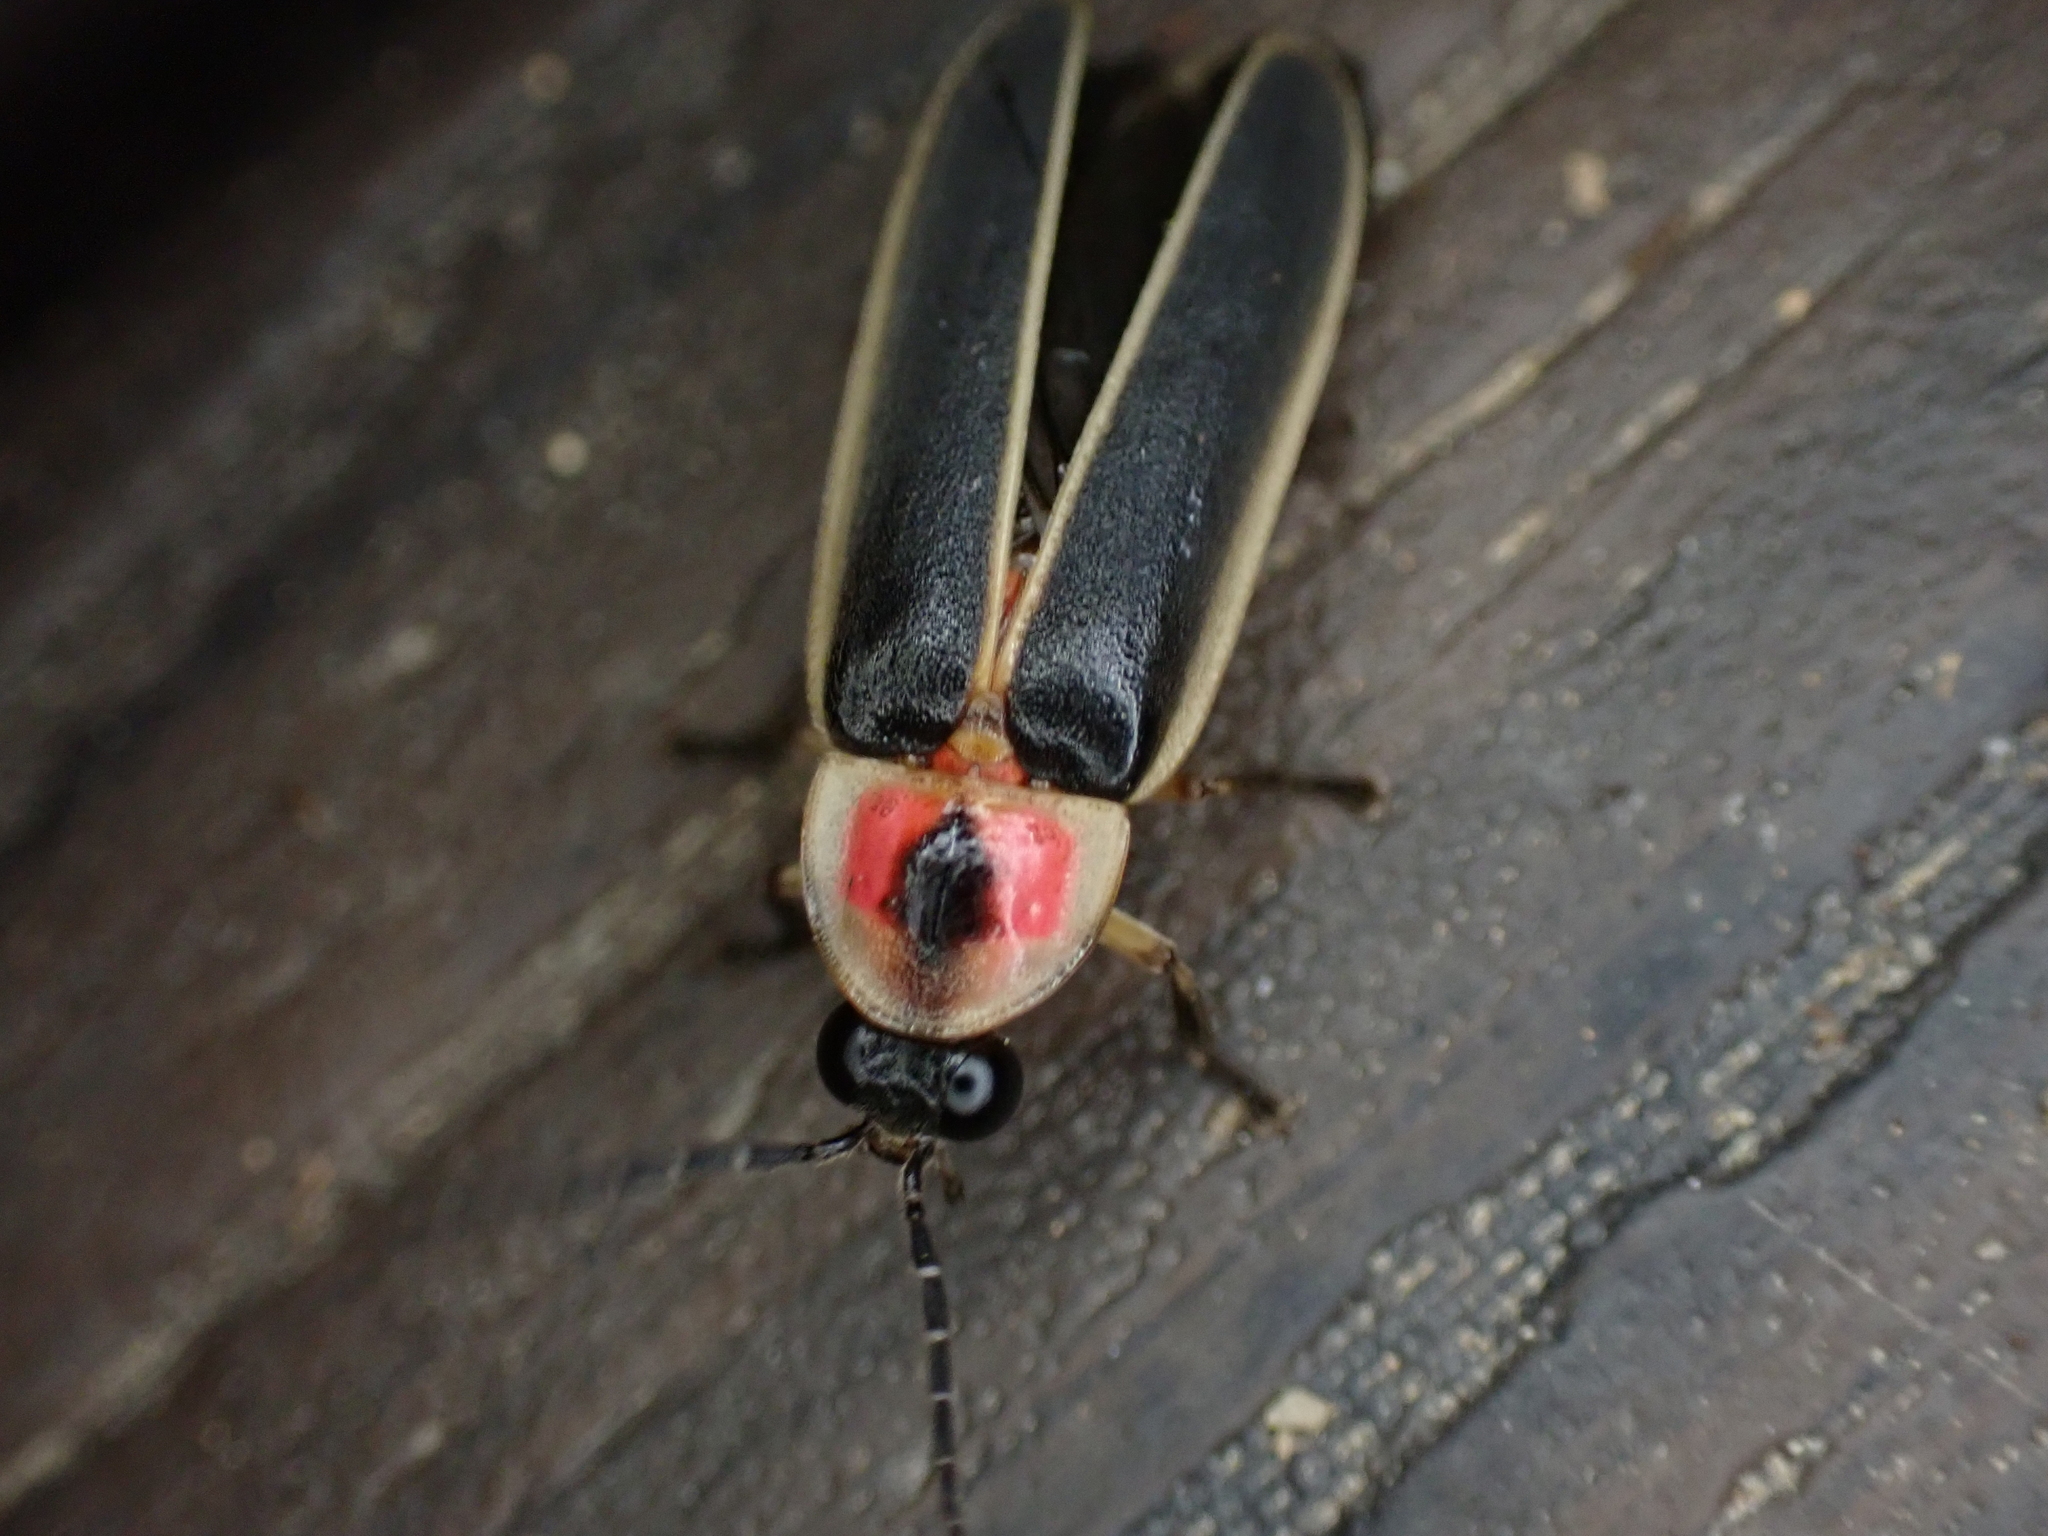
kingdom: Animalia
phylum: Arthropoda
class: Insecta
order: Coleoptera
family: Lampyridae
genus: Photinus
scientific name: Photinus pyralis
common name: Big dipper firefly
